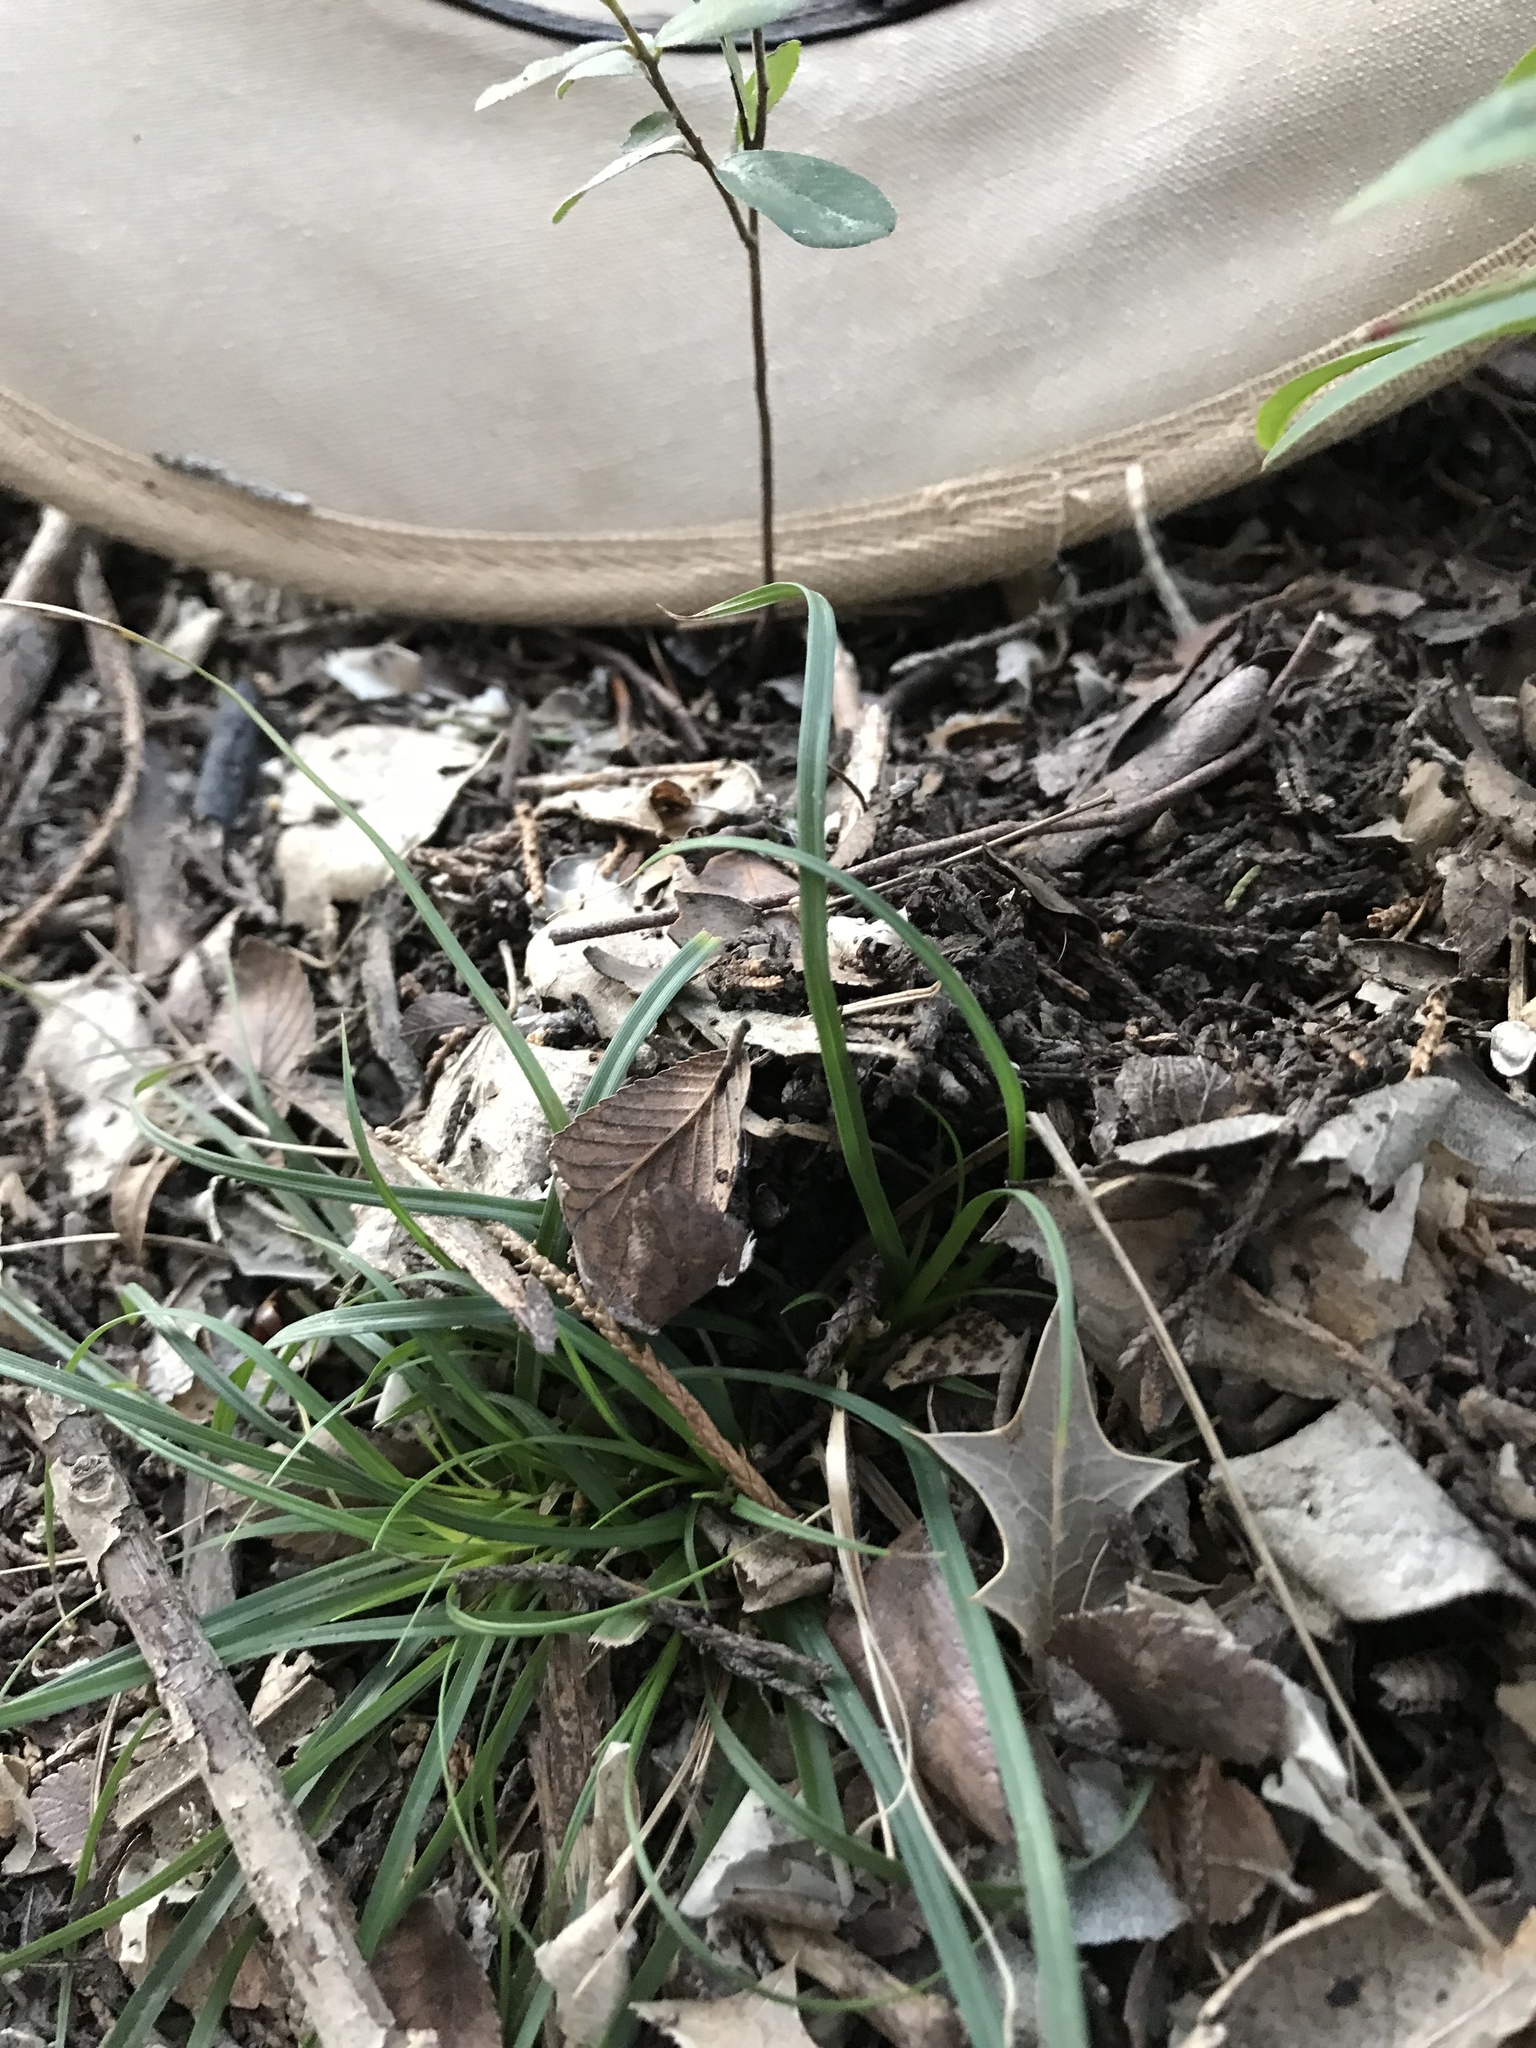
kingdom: Plantae
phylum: Tracheophyta
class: Magnoliopsida
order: Ericales
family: Ebenaceae
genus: Diospyros
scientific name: Diospyros texana
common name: Texas persimmon
